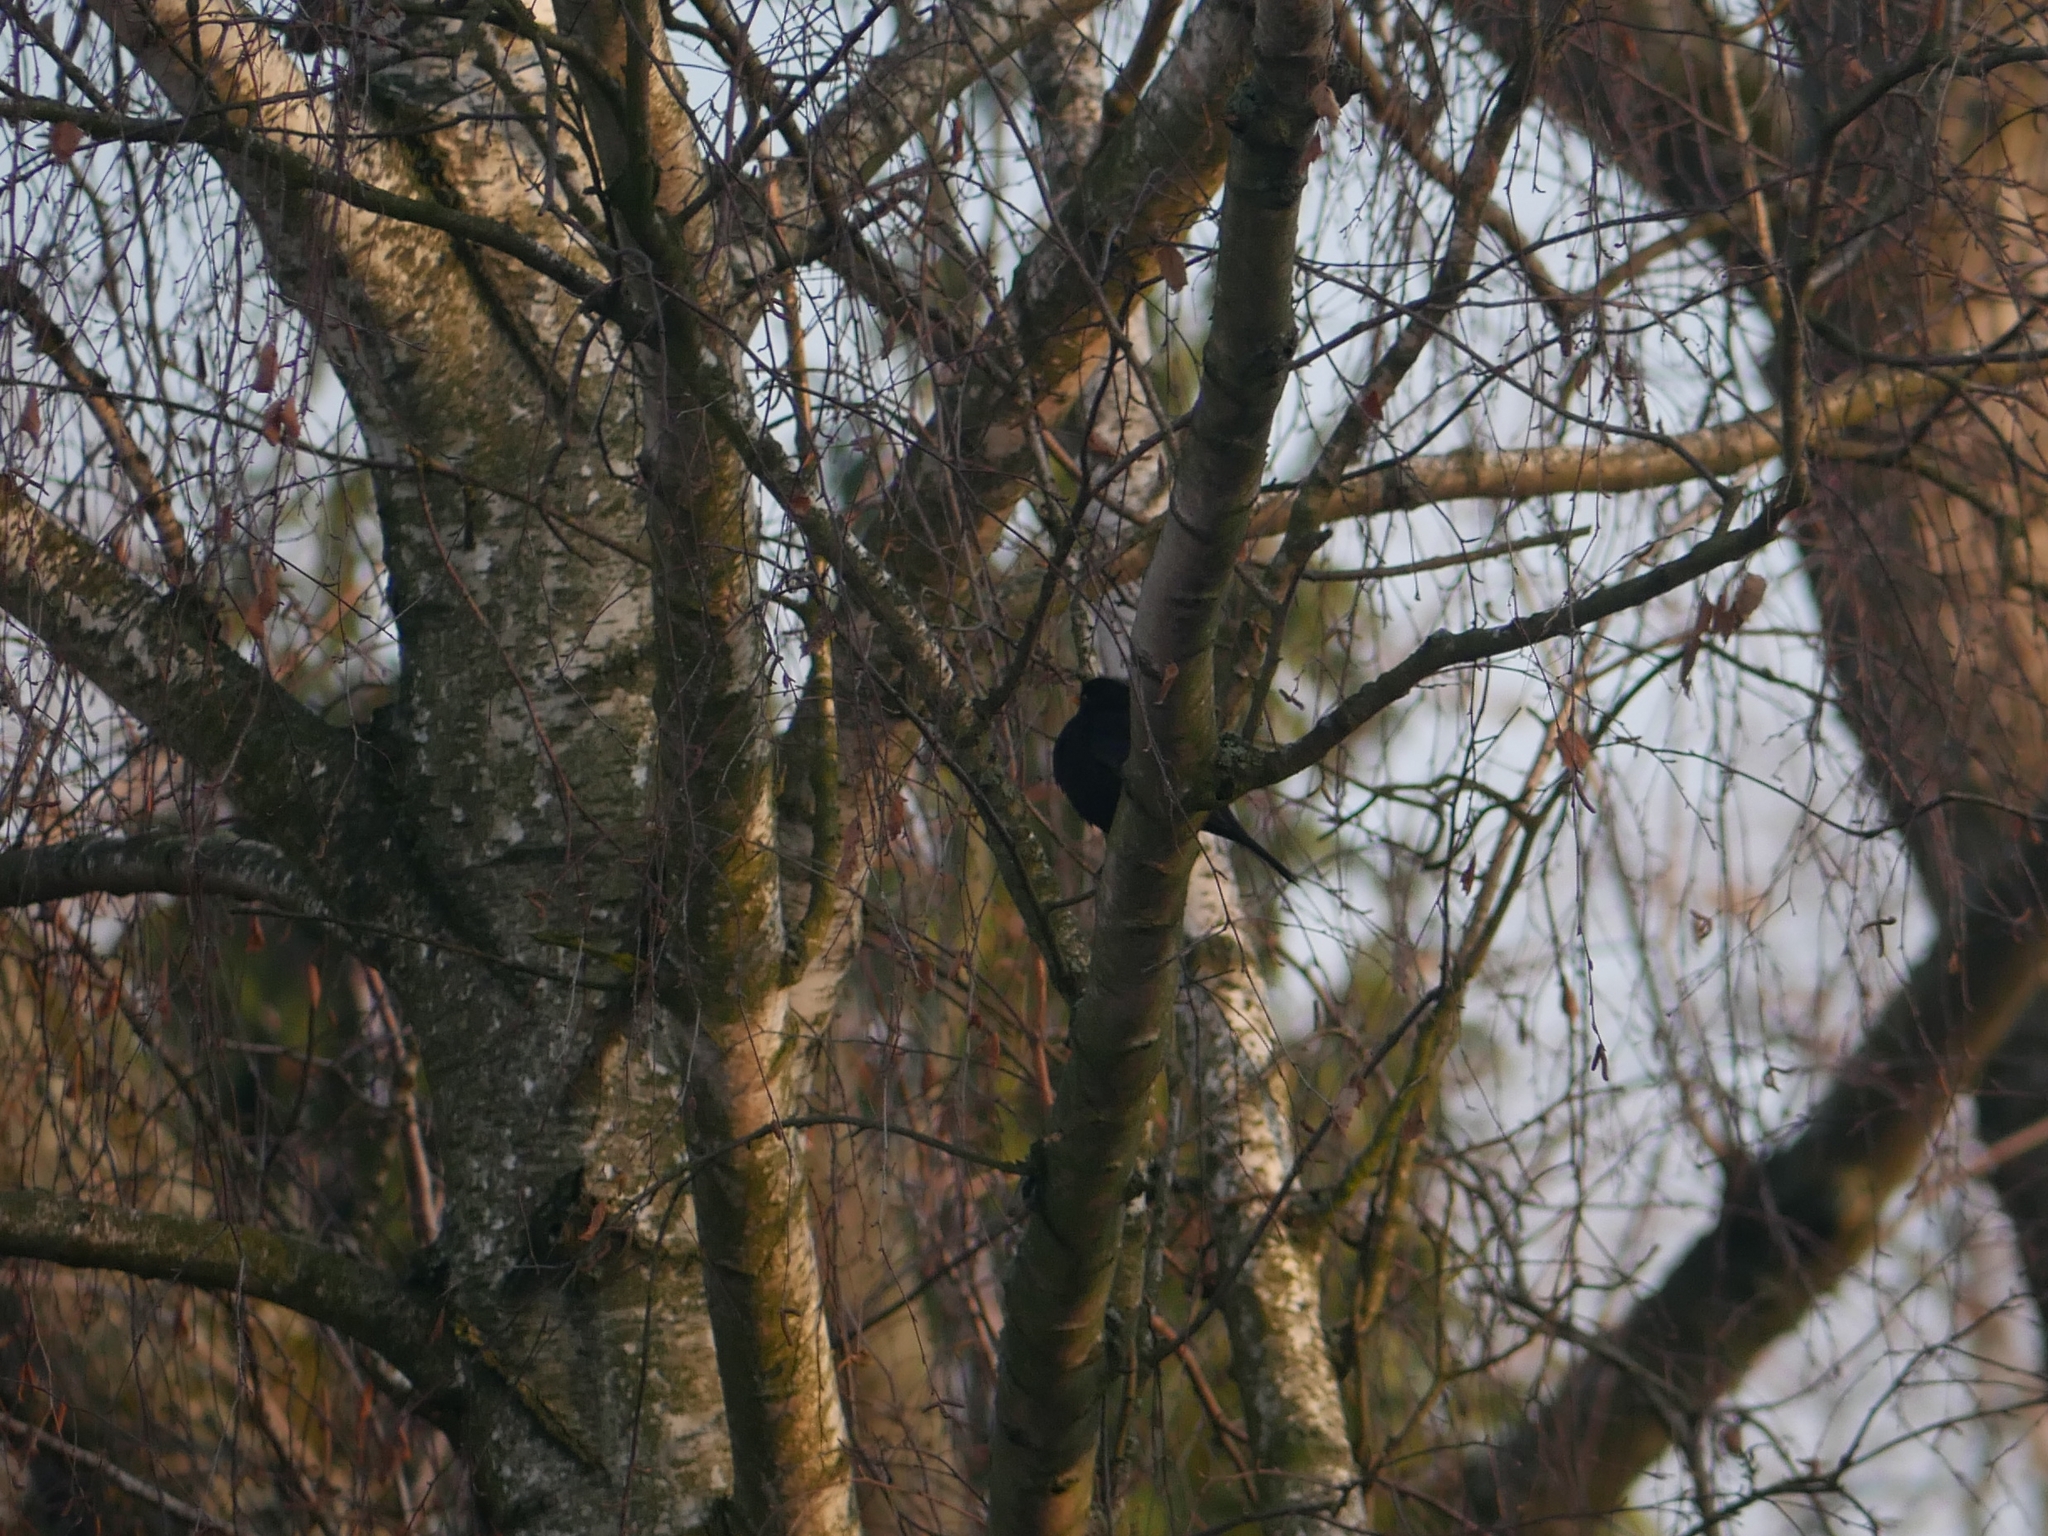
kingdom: Animalia
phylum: Chordata
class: Aves
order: Passeriformes
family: Turdidae
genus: Turdus
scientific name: Turdus merula
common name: Common blackbird
